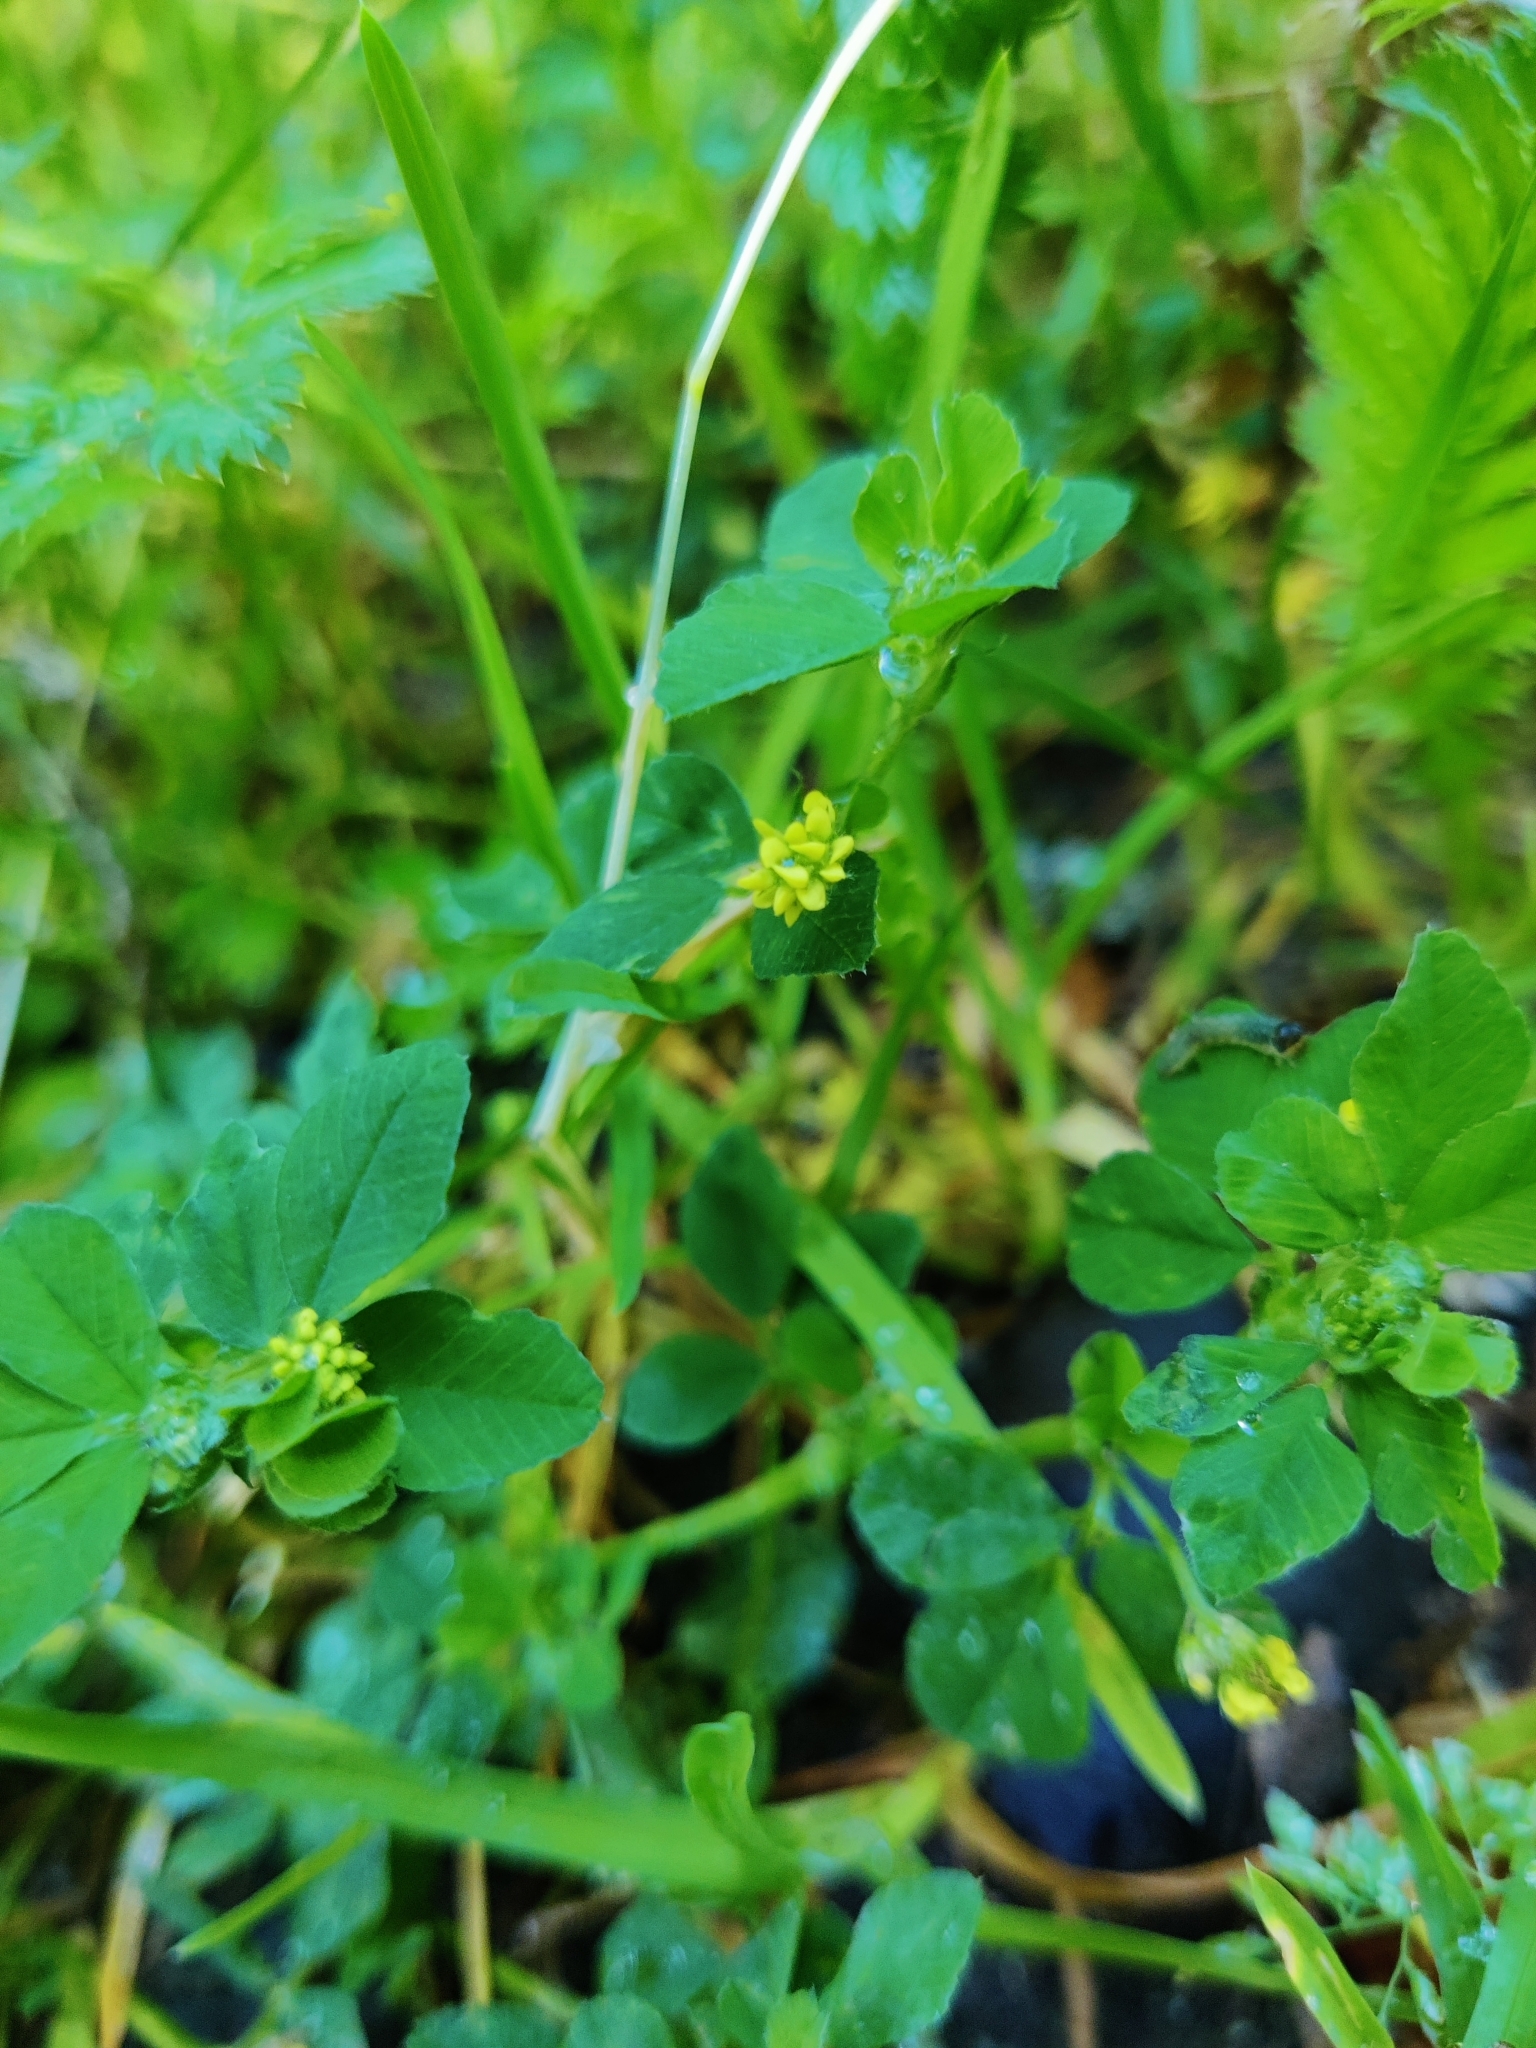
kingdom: Plantae
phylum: Tracheophyta
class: Magnoliopsida
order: Fabales
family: Fabaceae
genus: Medicago
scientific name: Medicago lupulina
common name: Black medick
